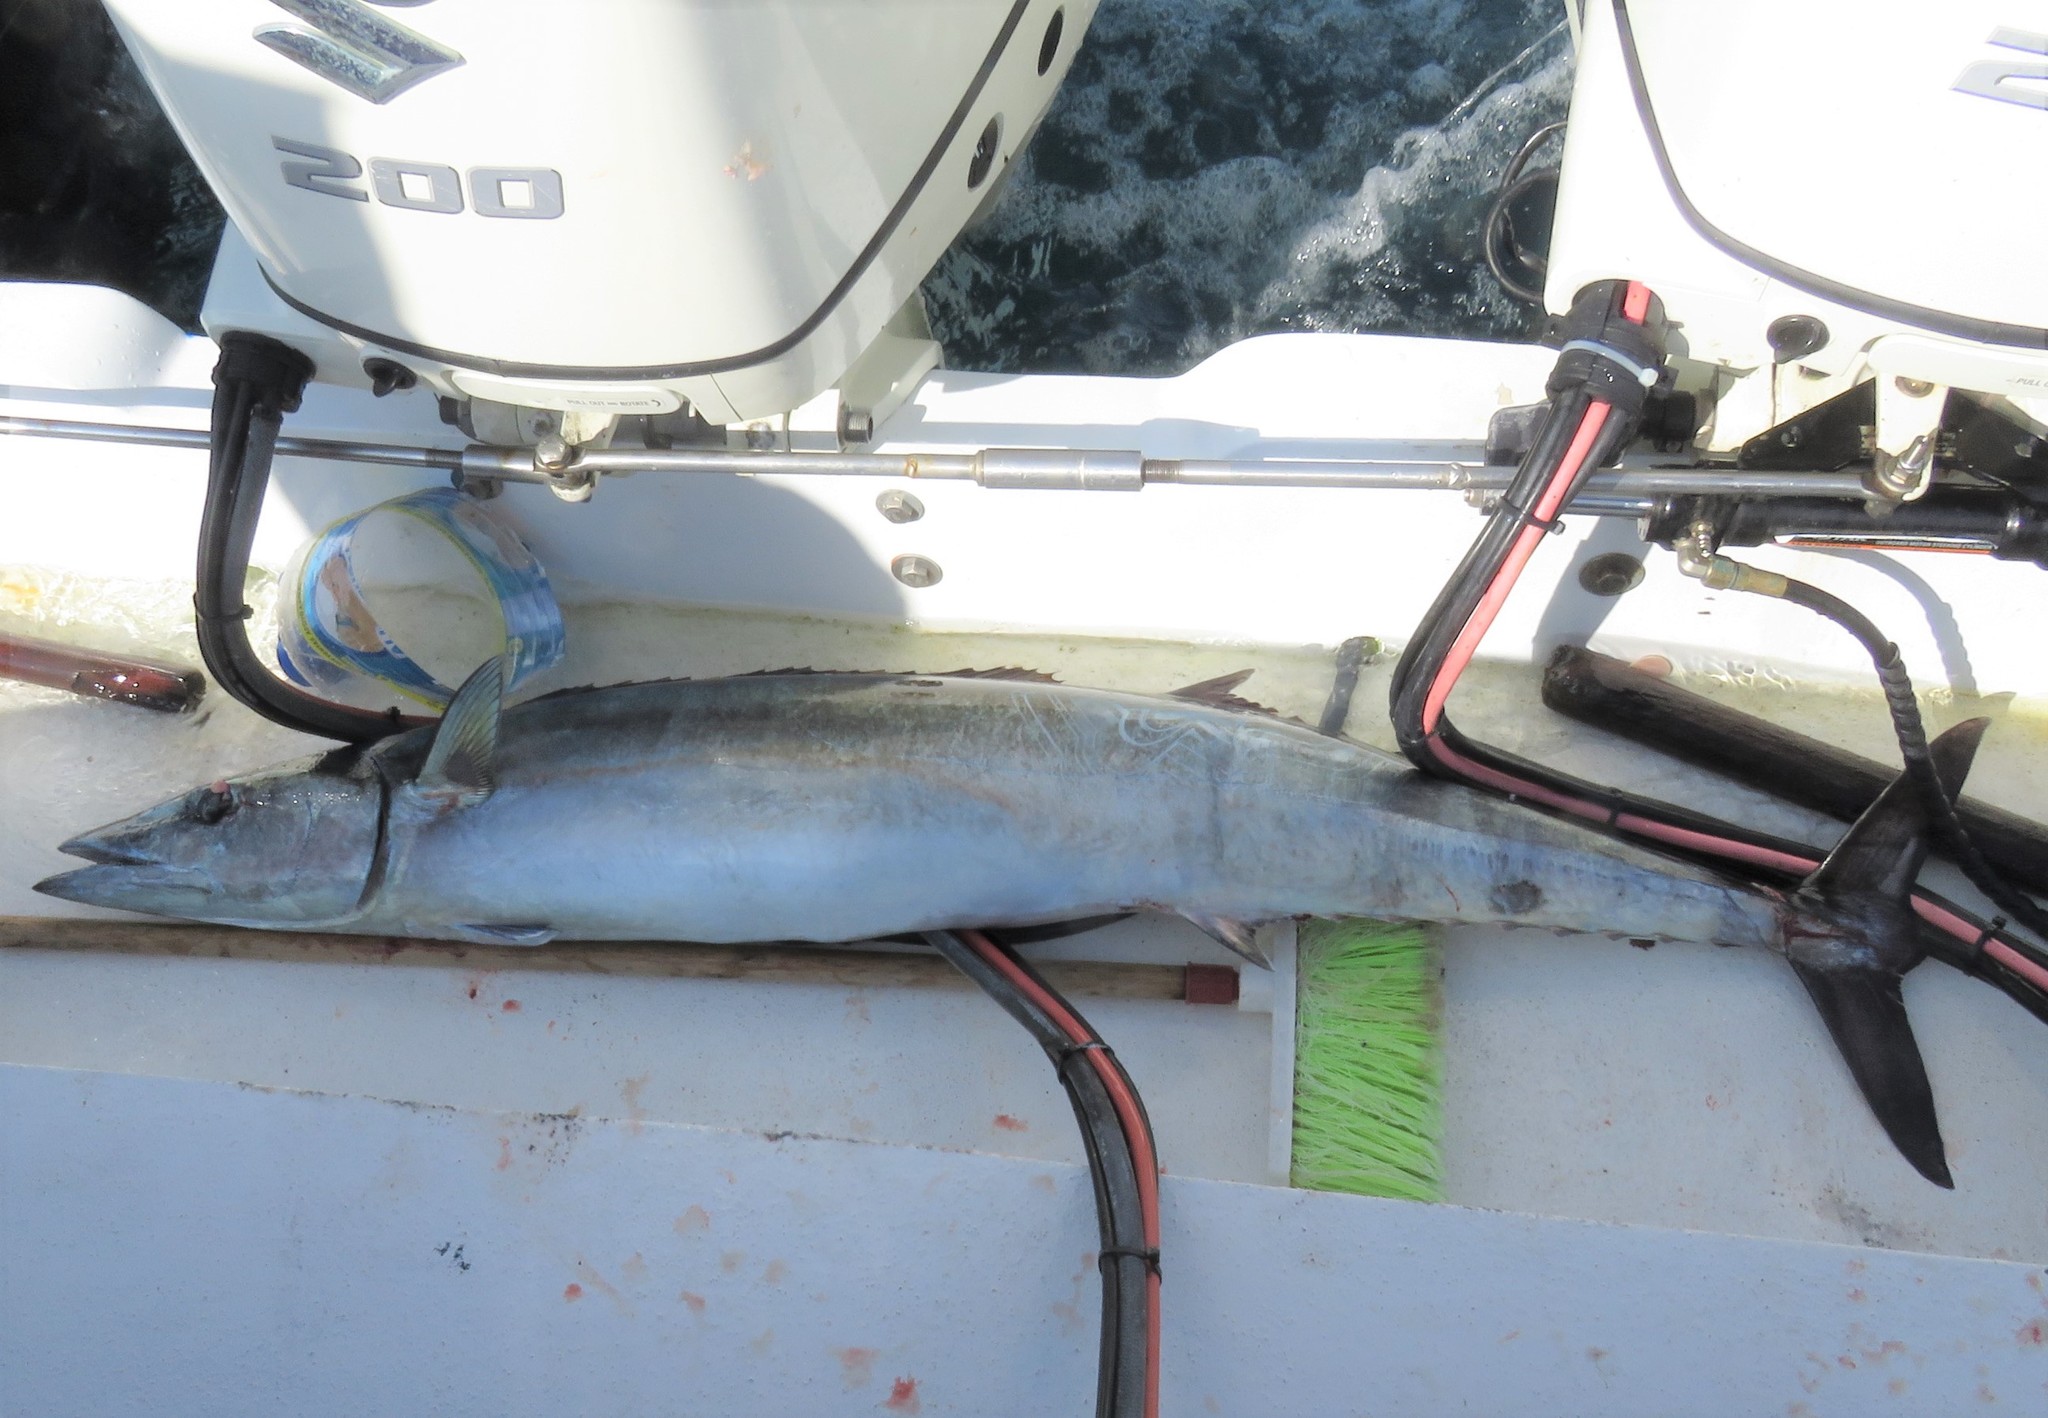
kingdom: Animalia
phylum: Chordata
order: Perciformes
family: Scombridae
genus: Acanthocybium
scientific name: Acanthocybium solandri
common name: Wahoo
